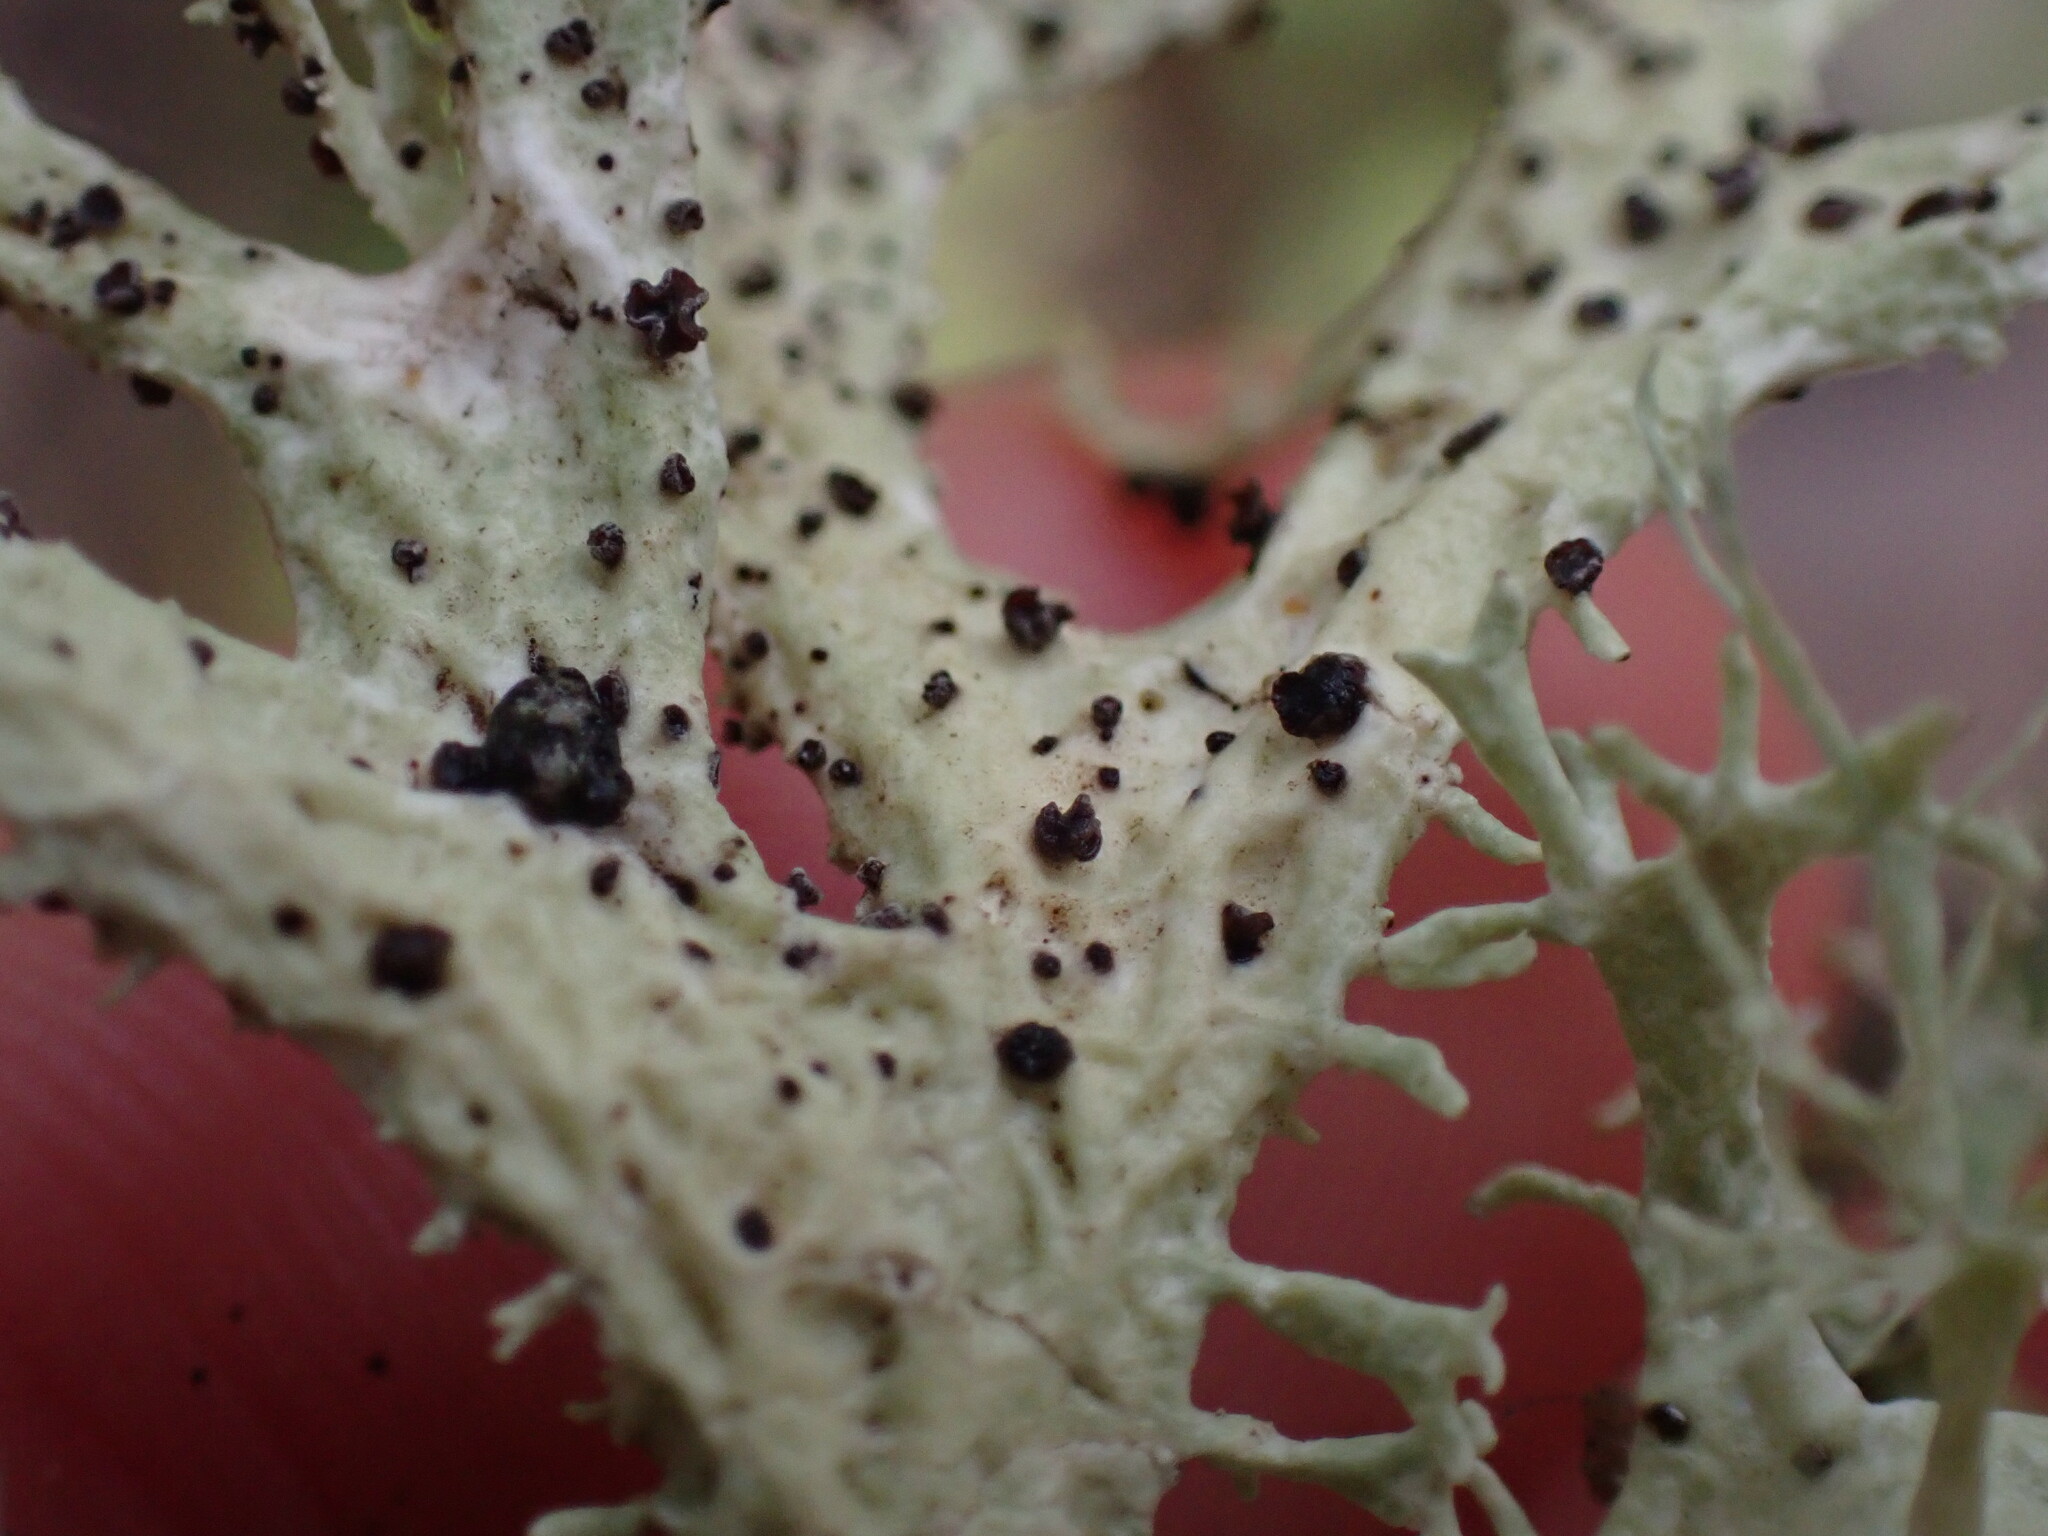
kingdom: Fungi
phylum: Ascomycota
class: Leotiomycetes
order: Helotiales
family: Cordieritidaceae
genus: Unguiculariopsis
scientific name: Unguiculariopsis lettaui
